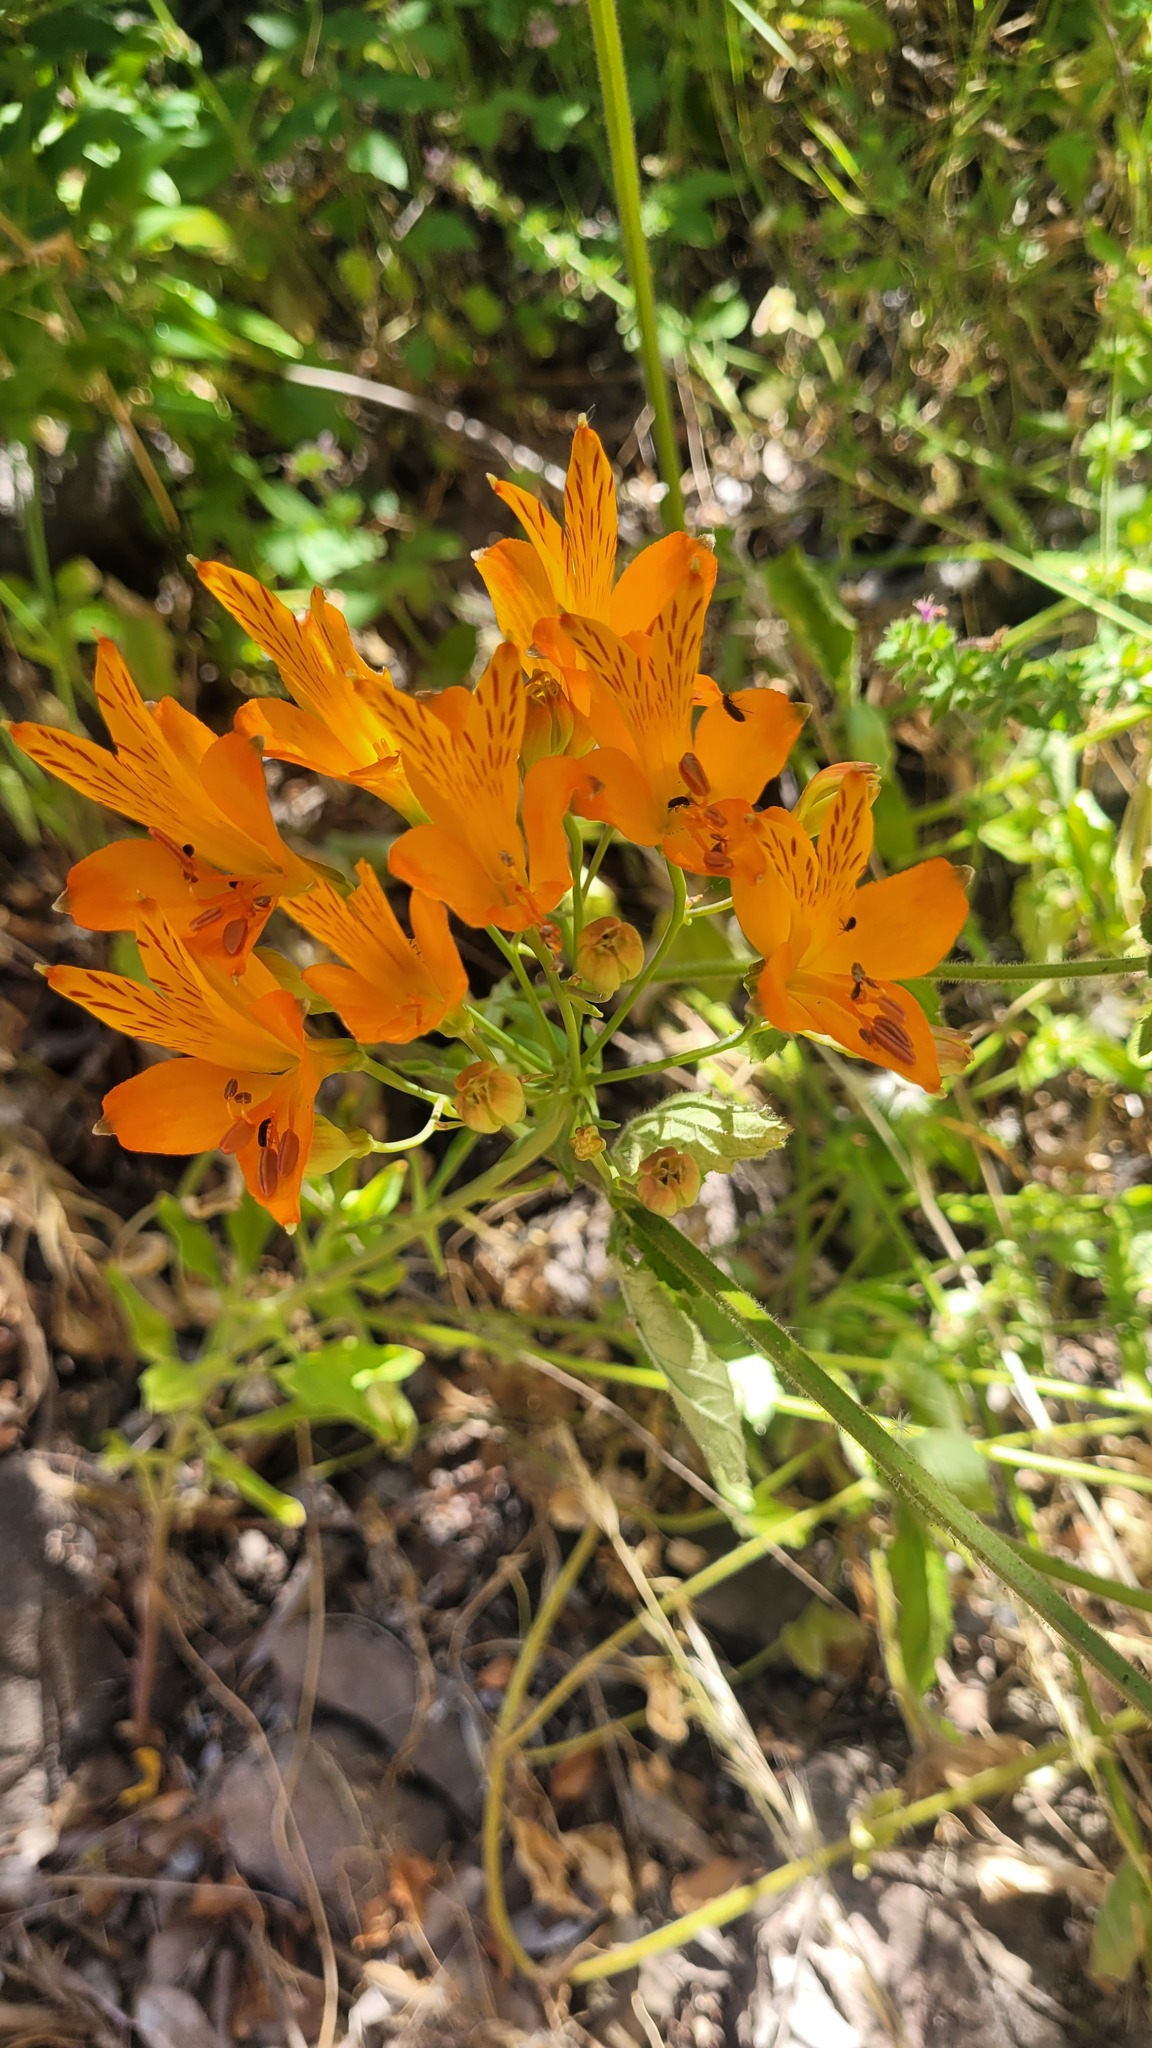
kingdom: Plantae
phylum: Tracheophyta
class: Liliopsida
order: Liliales
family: Alstroemeriaceae
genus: Alstroemeria
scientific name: Alstroemeria ligtu
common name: St. martin's-flower
